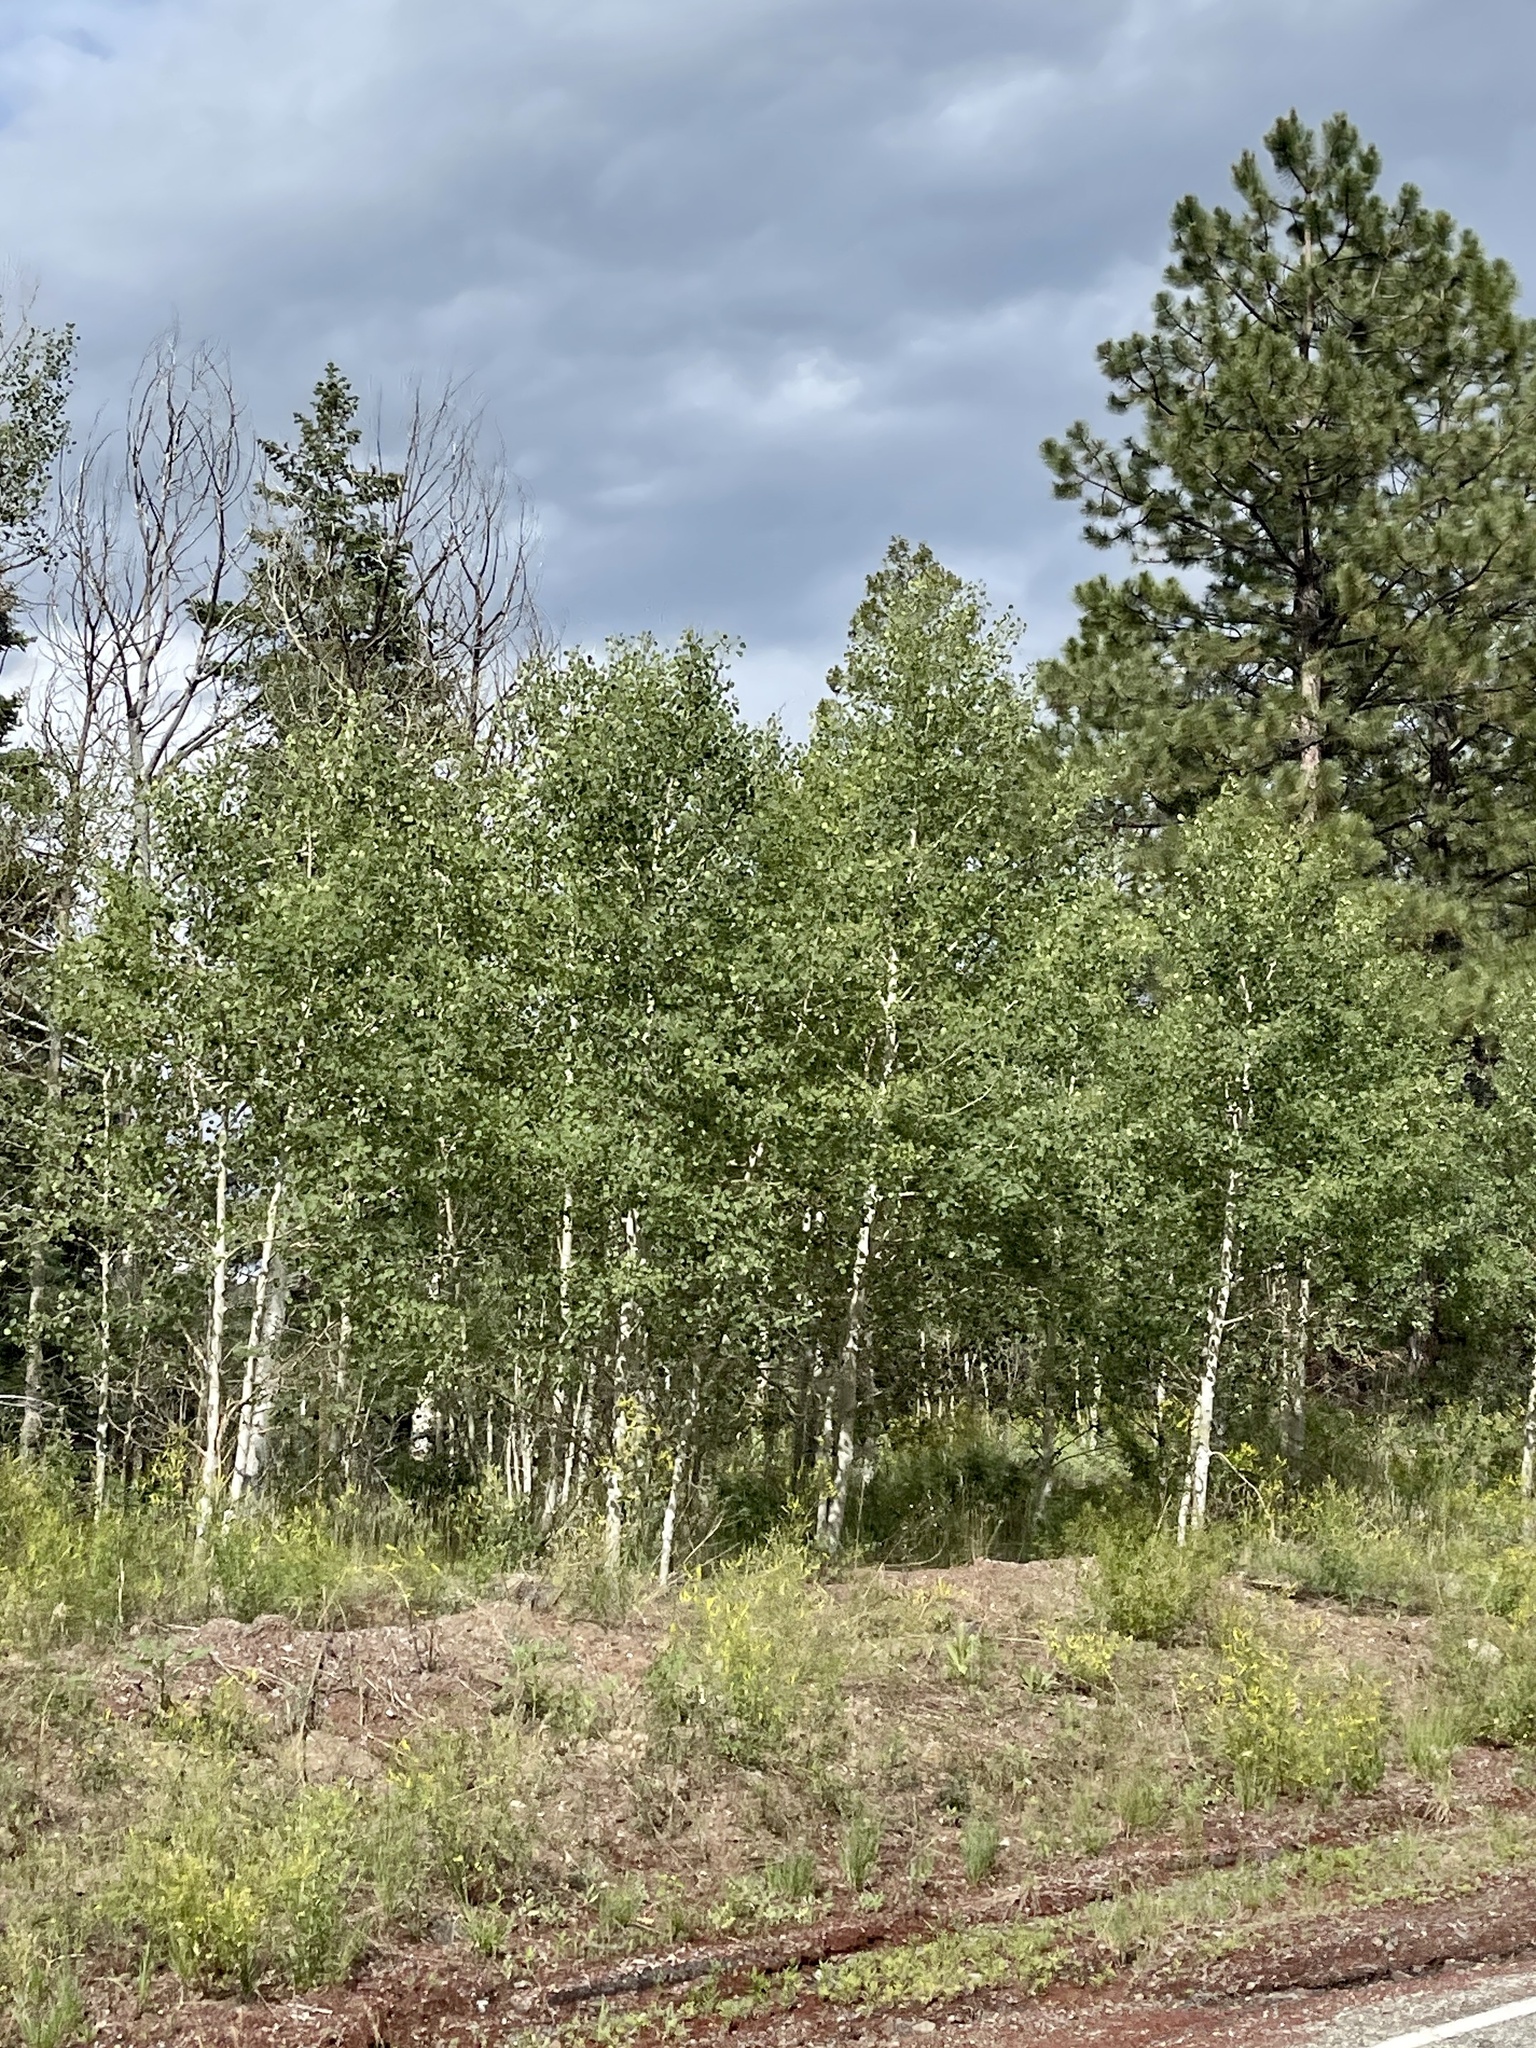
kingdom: Plantae
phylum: Tracheophyta
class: Magnoliopsida
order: Malpighiales
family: Salicaceae
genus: Populus
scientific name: Populus tremuloides
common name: Quaking aspen
